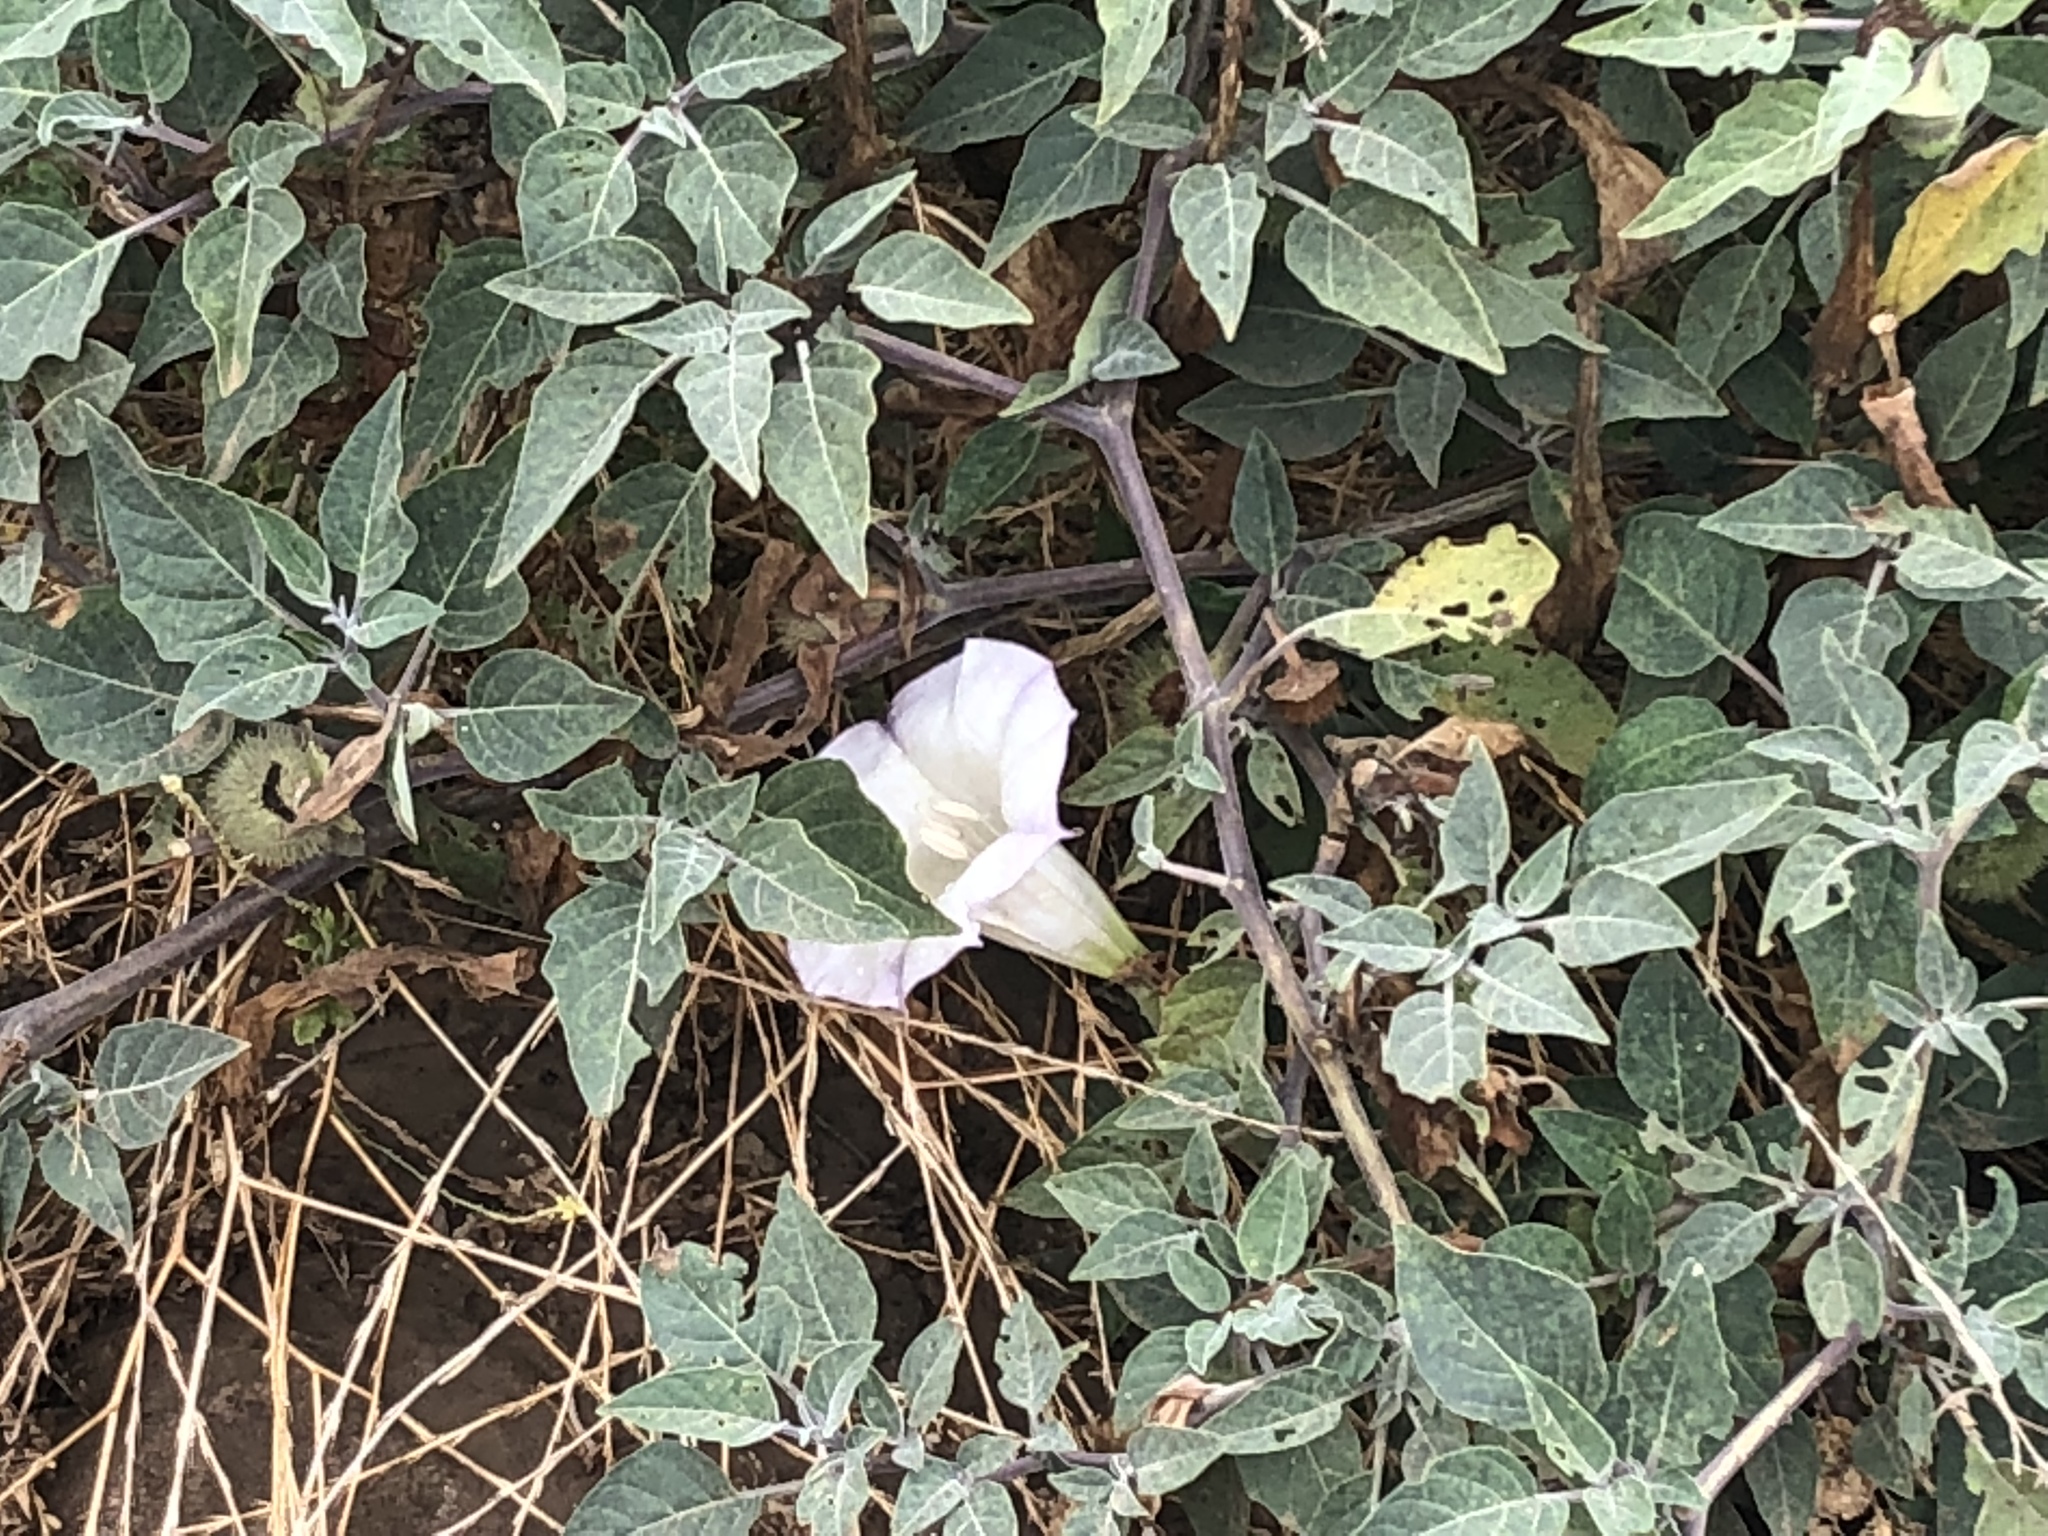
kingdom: Plantae
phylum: Tracheophyta
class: Magnoliopsida
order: Solanales
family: Solanaceae
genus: Datura
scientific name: Datura wrightii
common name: Sacred thorn-apple
